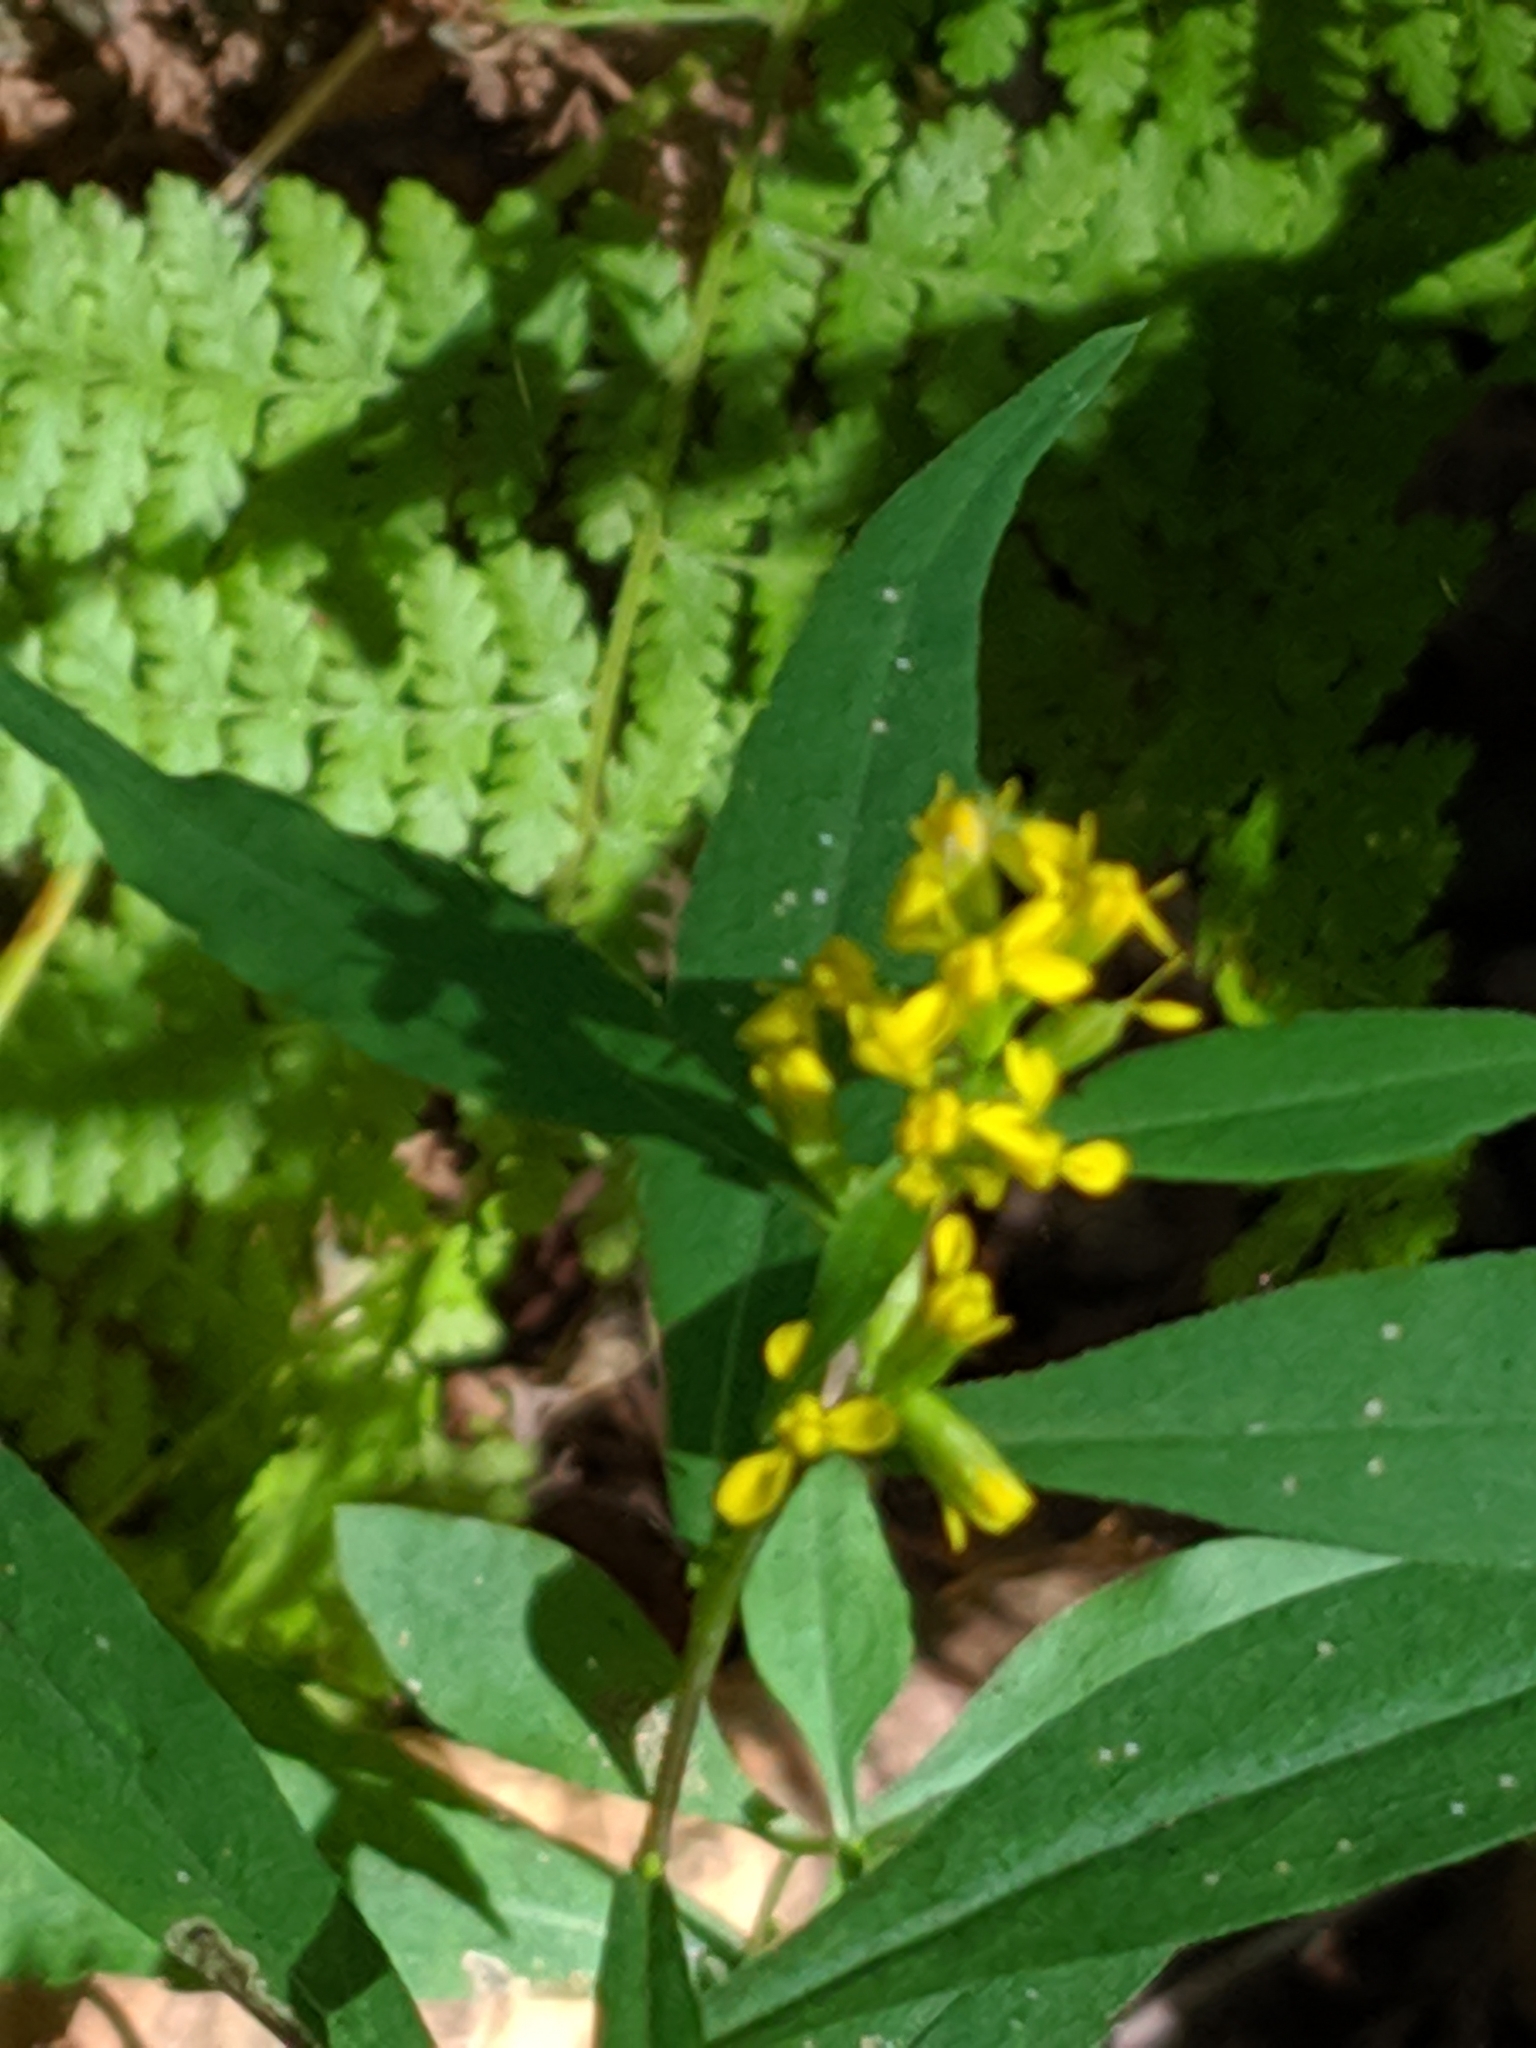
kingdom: Plantae
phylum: Tracheophyta
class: Magnoliopsida
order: Asterales
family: Asteraceae
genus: Solidago
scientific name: Solidago caesia
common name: Woodland goldenrod
